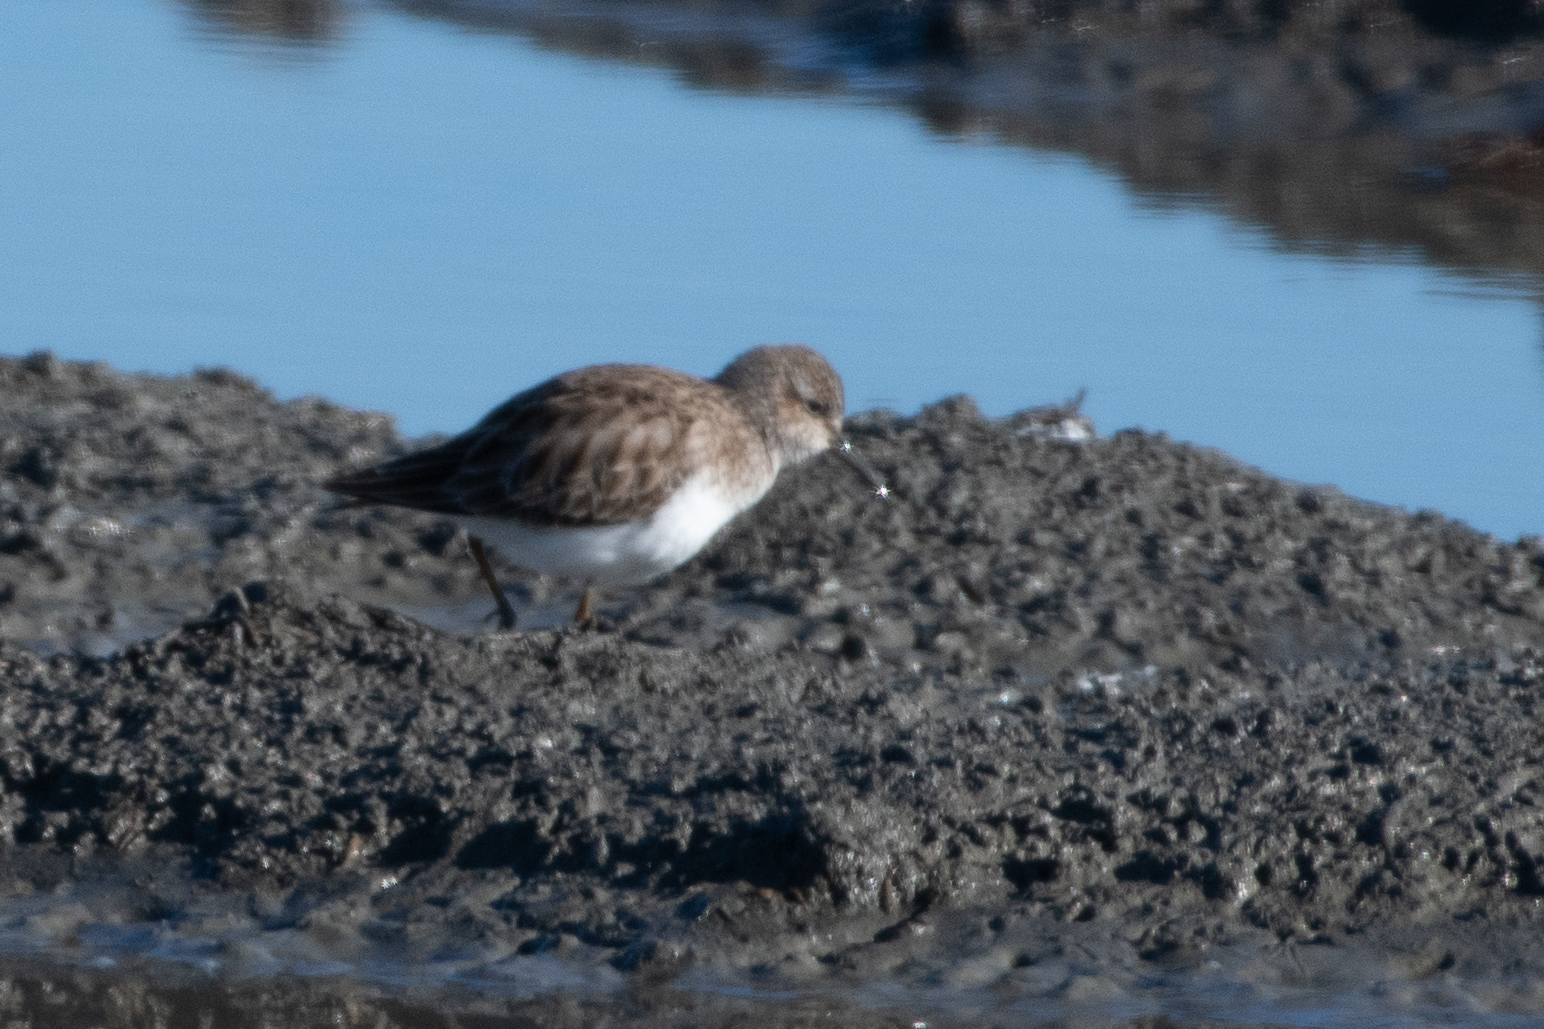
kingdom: Animalia
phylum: Chordata
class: Aves
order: Charadriiformes
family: Scolopacidae
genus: Calidris
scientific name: Calidris minutilla
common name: Least sandpiper
